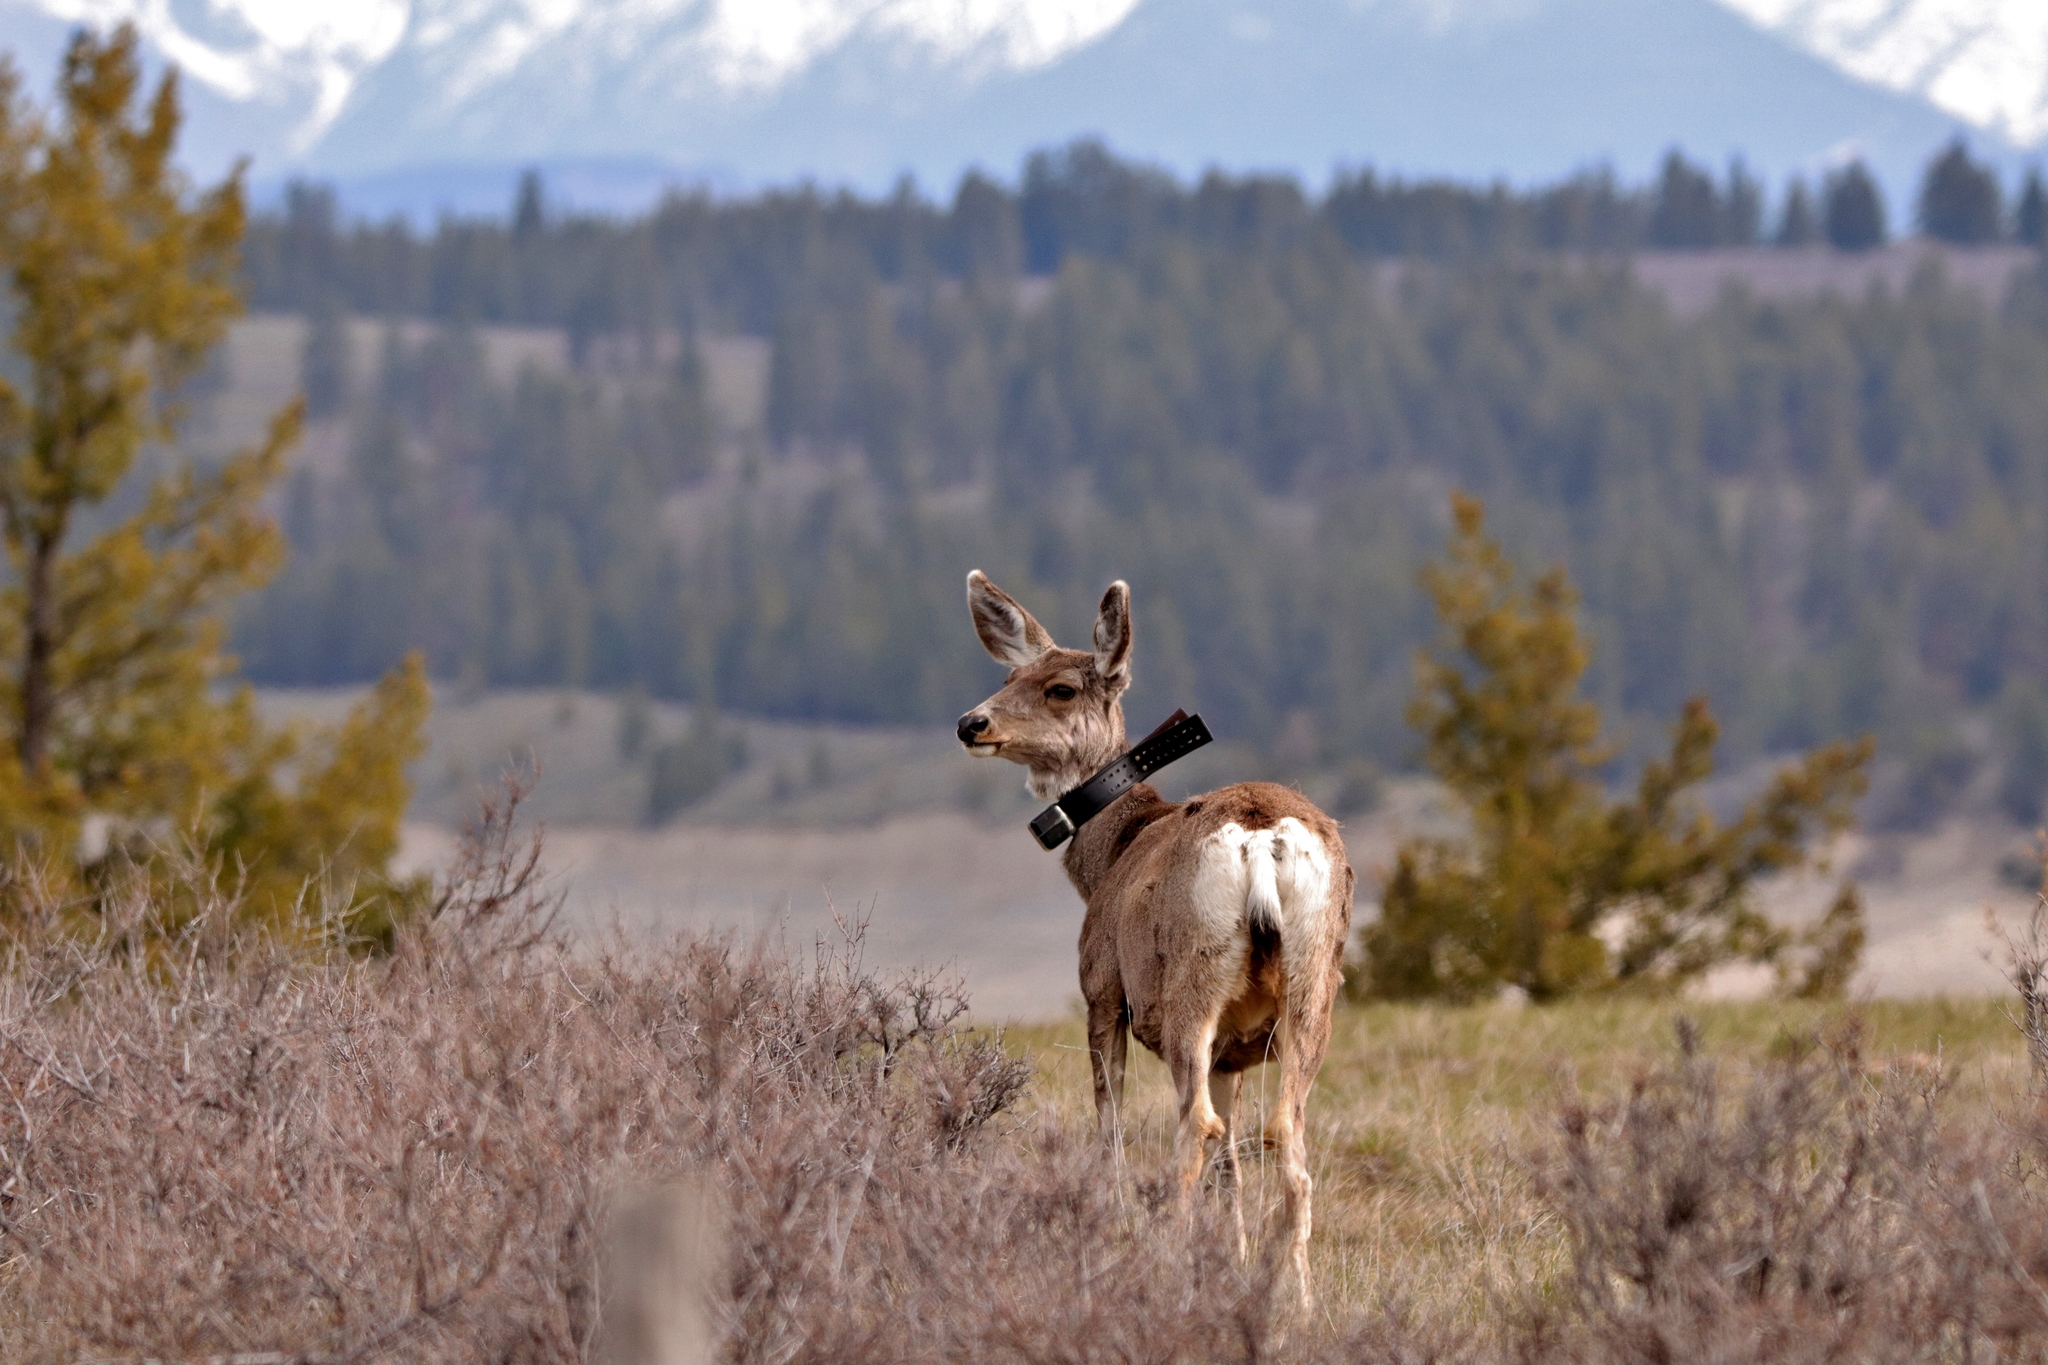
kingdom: Animalia
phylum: Chordata
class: Mammalia
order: Artiodactyla
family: Cervidae
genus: Odocoileus
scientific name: Odocoileus hemionus
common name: Mule deer
